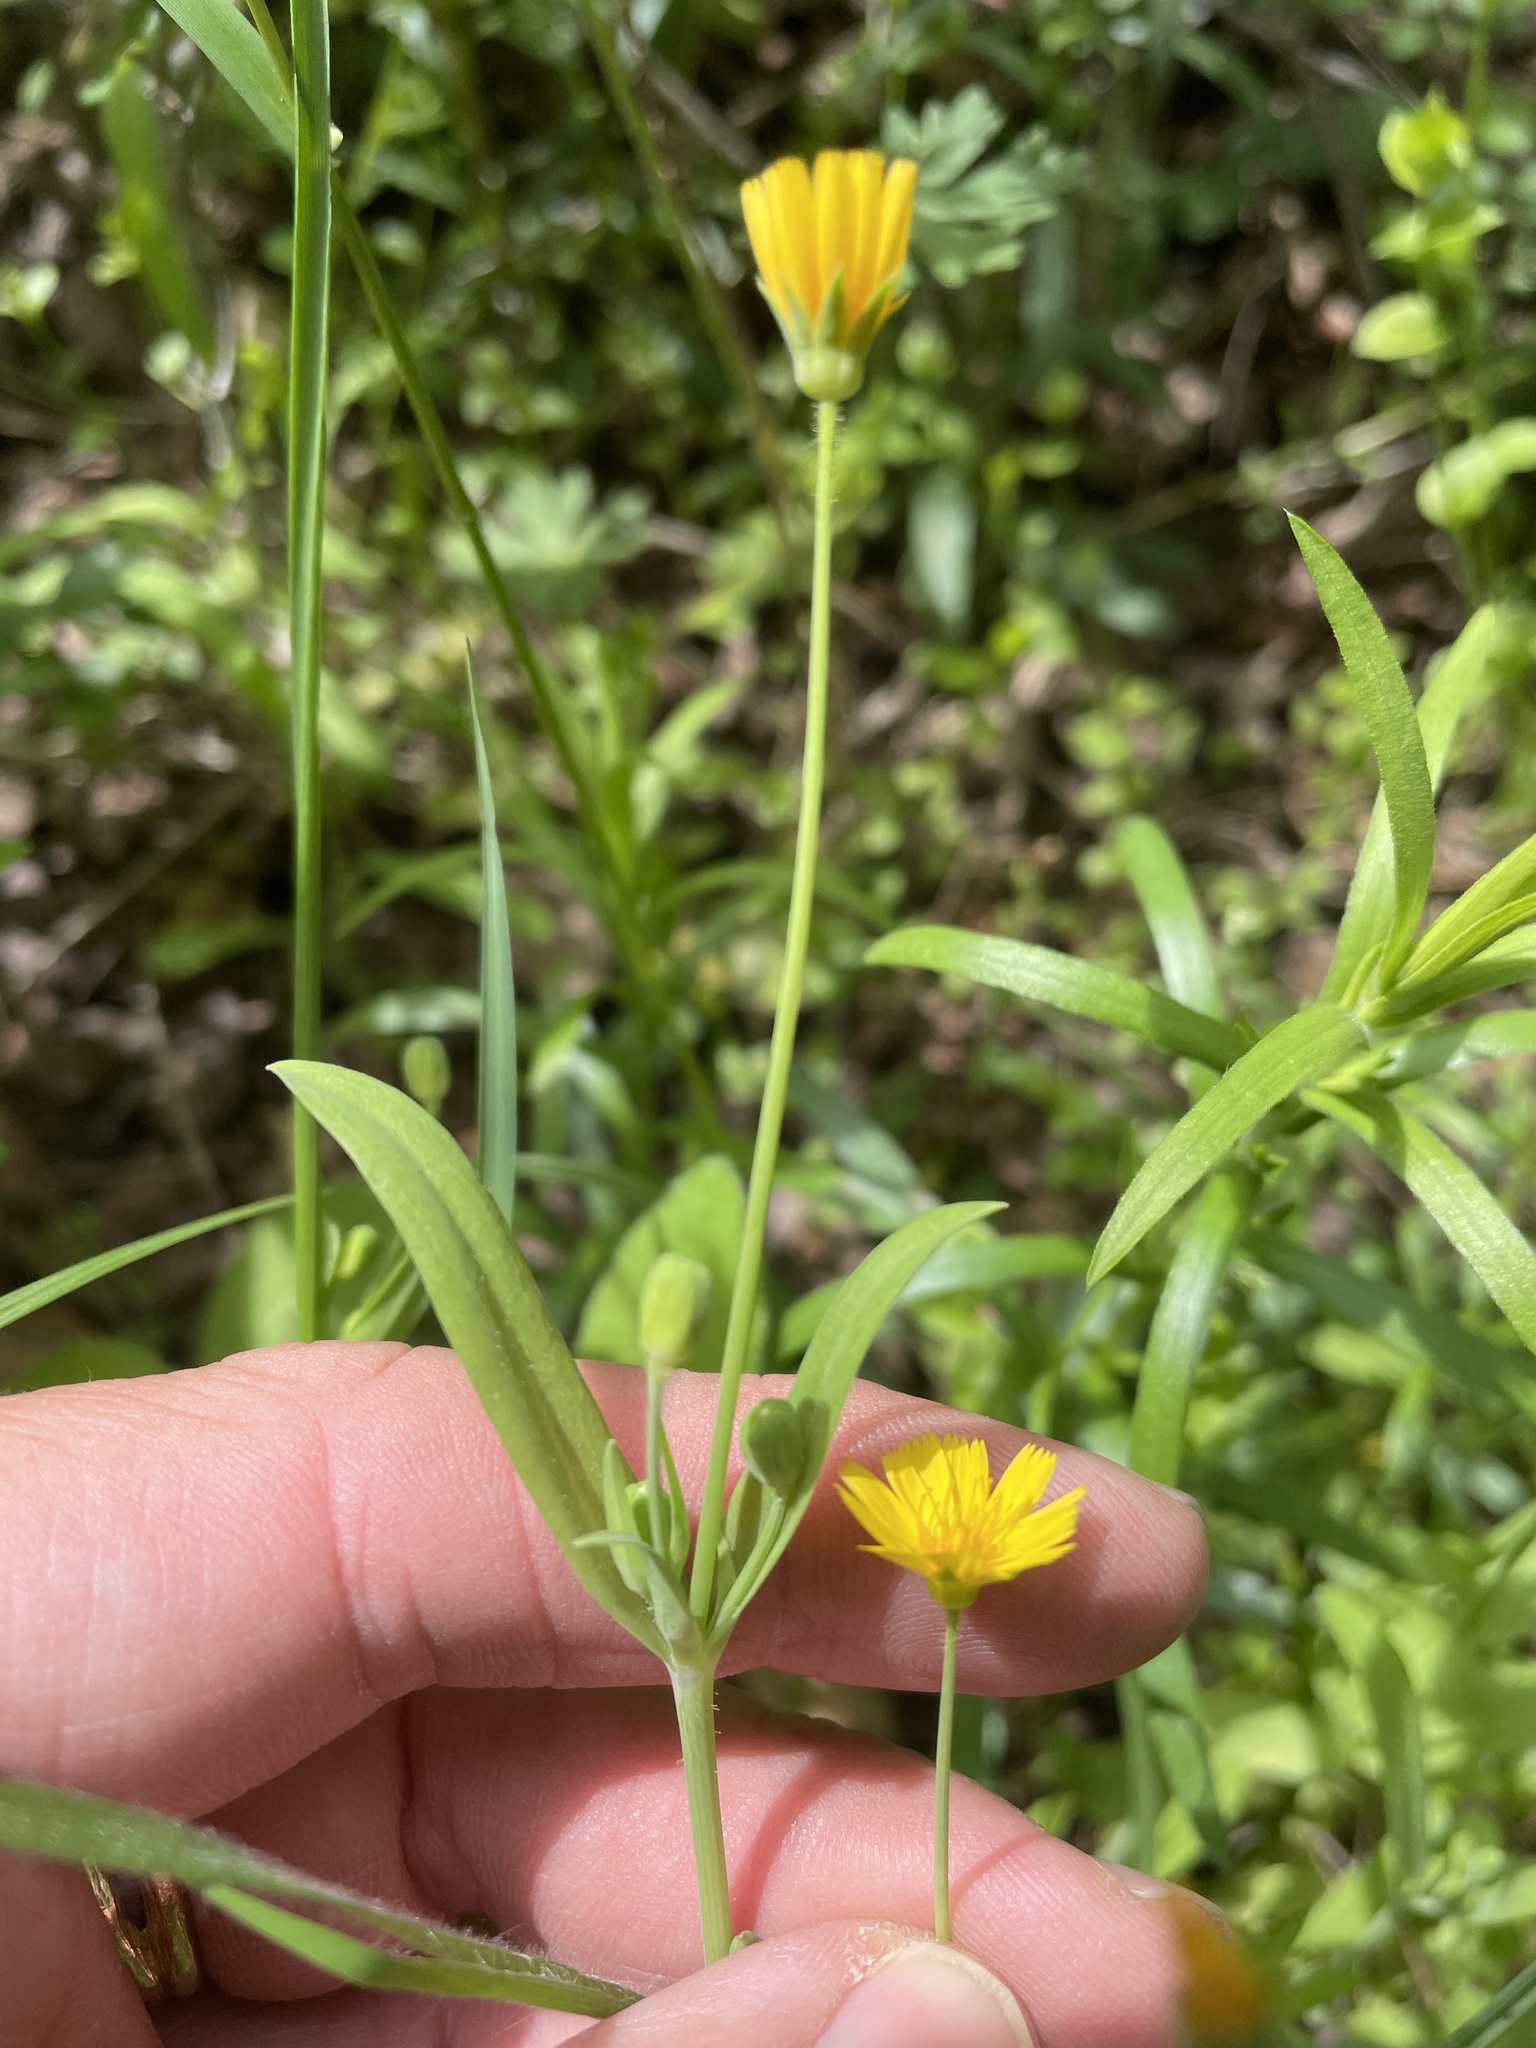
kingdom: Plantae
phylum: Tracheophyta
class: Magnoliopsida
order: Asterales
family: Asteraceae
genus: Krigia
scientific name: Krigia cespitosa
